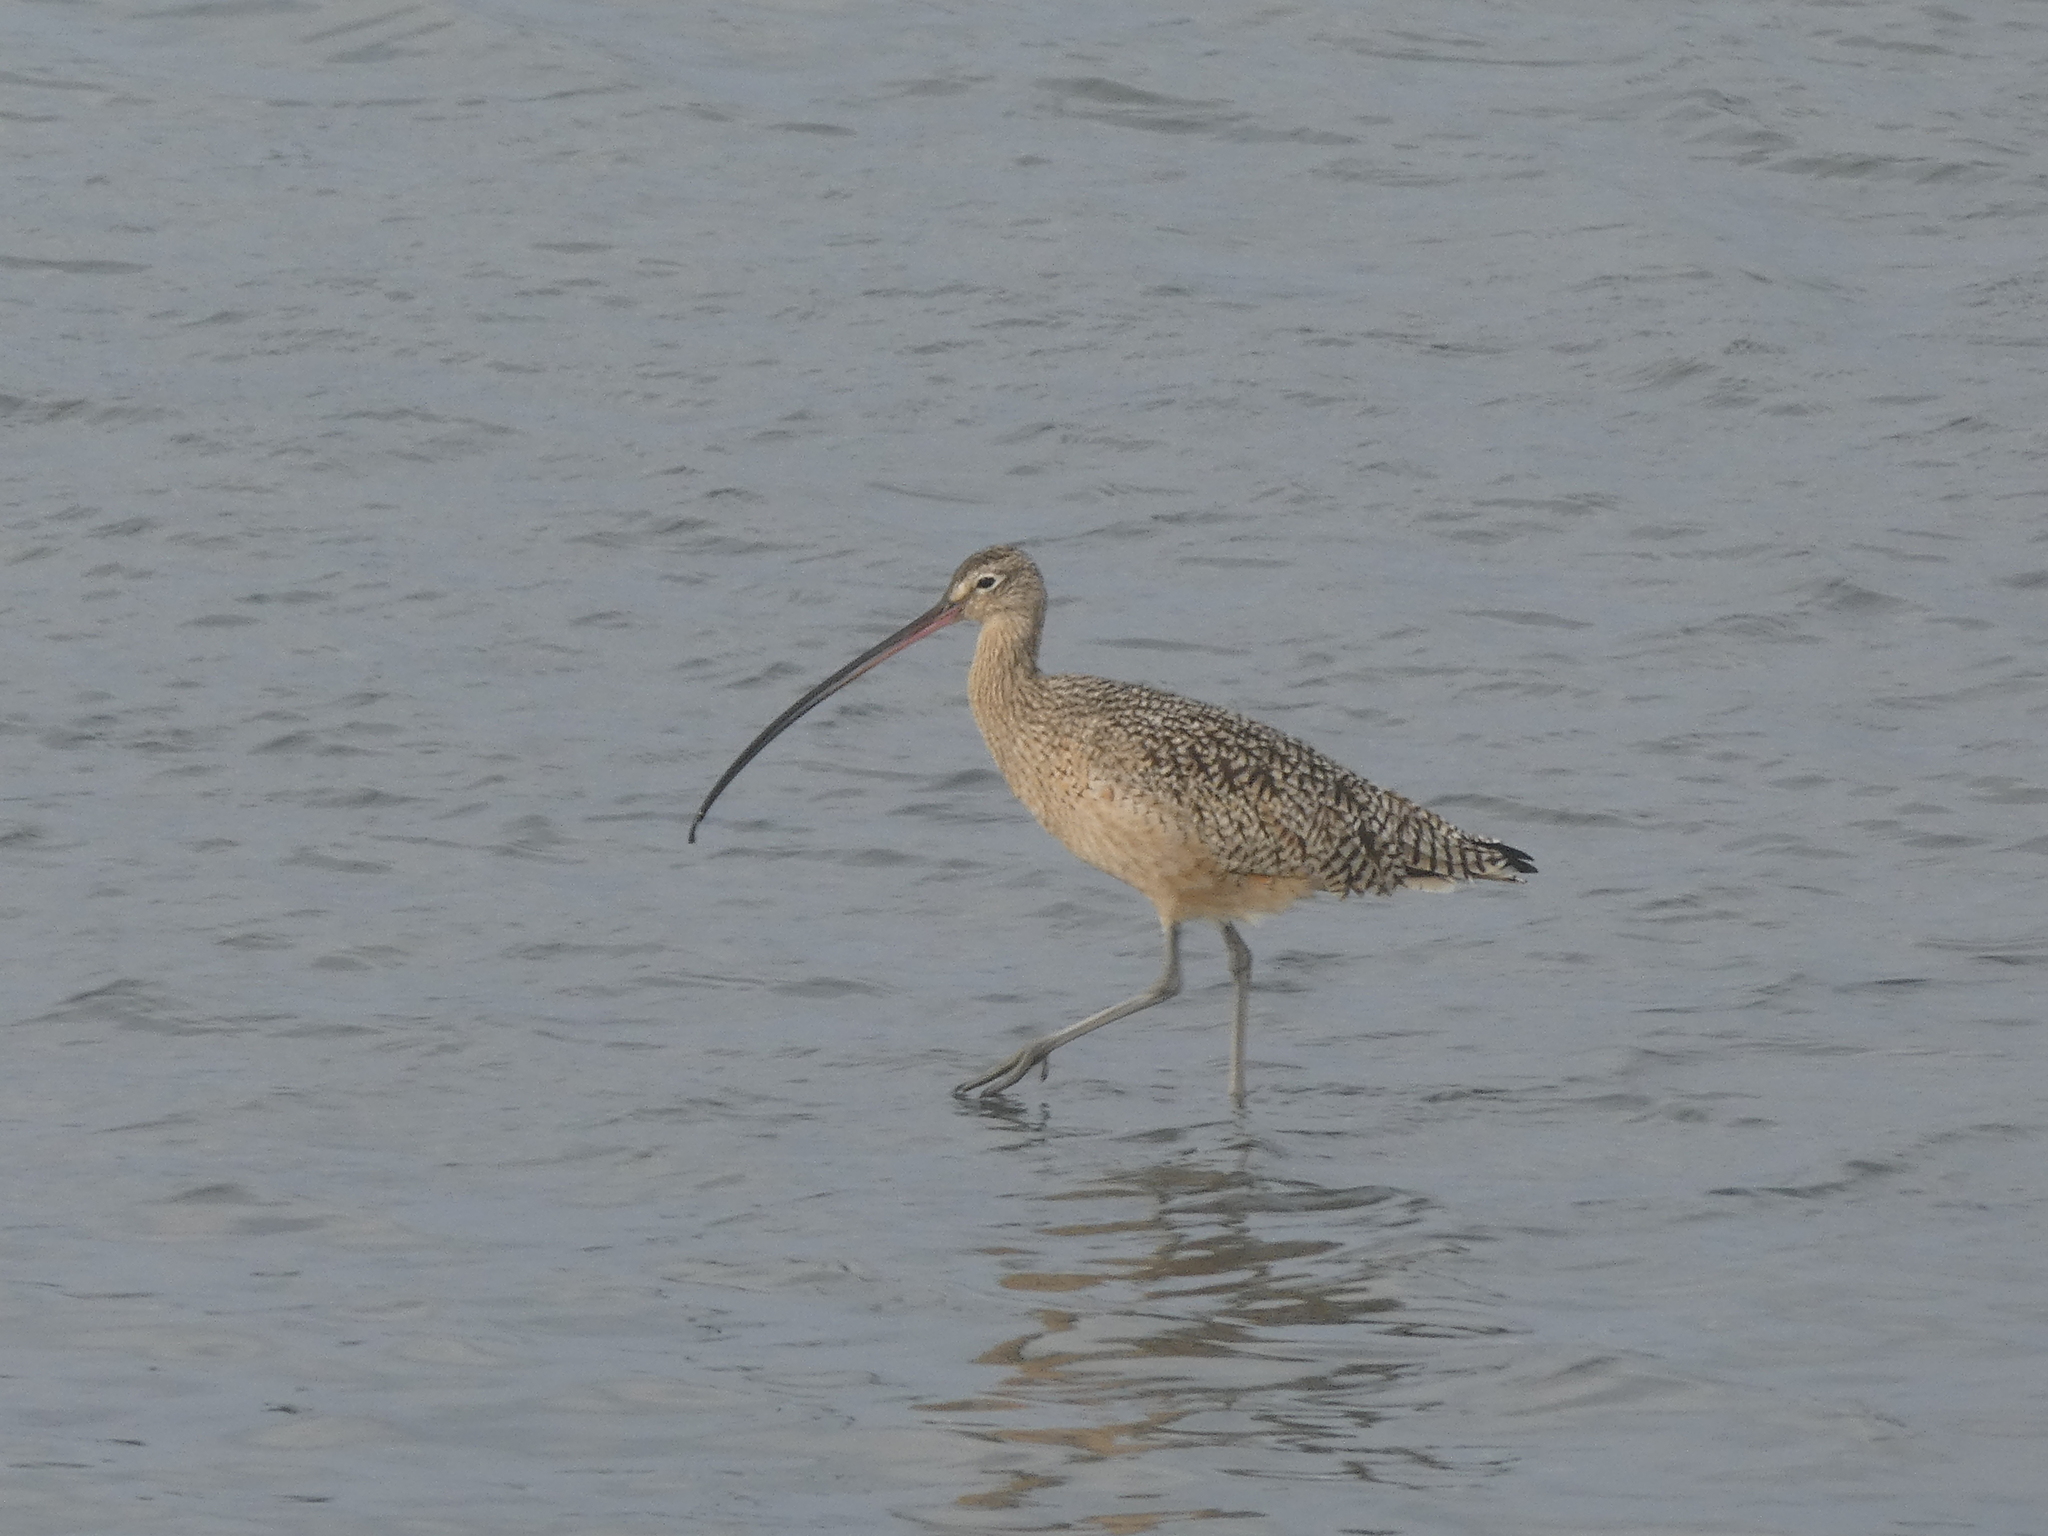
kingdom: Animalia
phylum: Chordata
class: Aves
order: Charadriiformes
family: Scolopacidae
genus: Numenius
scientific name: Numenius americanus
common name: Long-billed curlew
